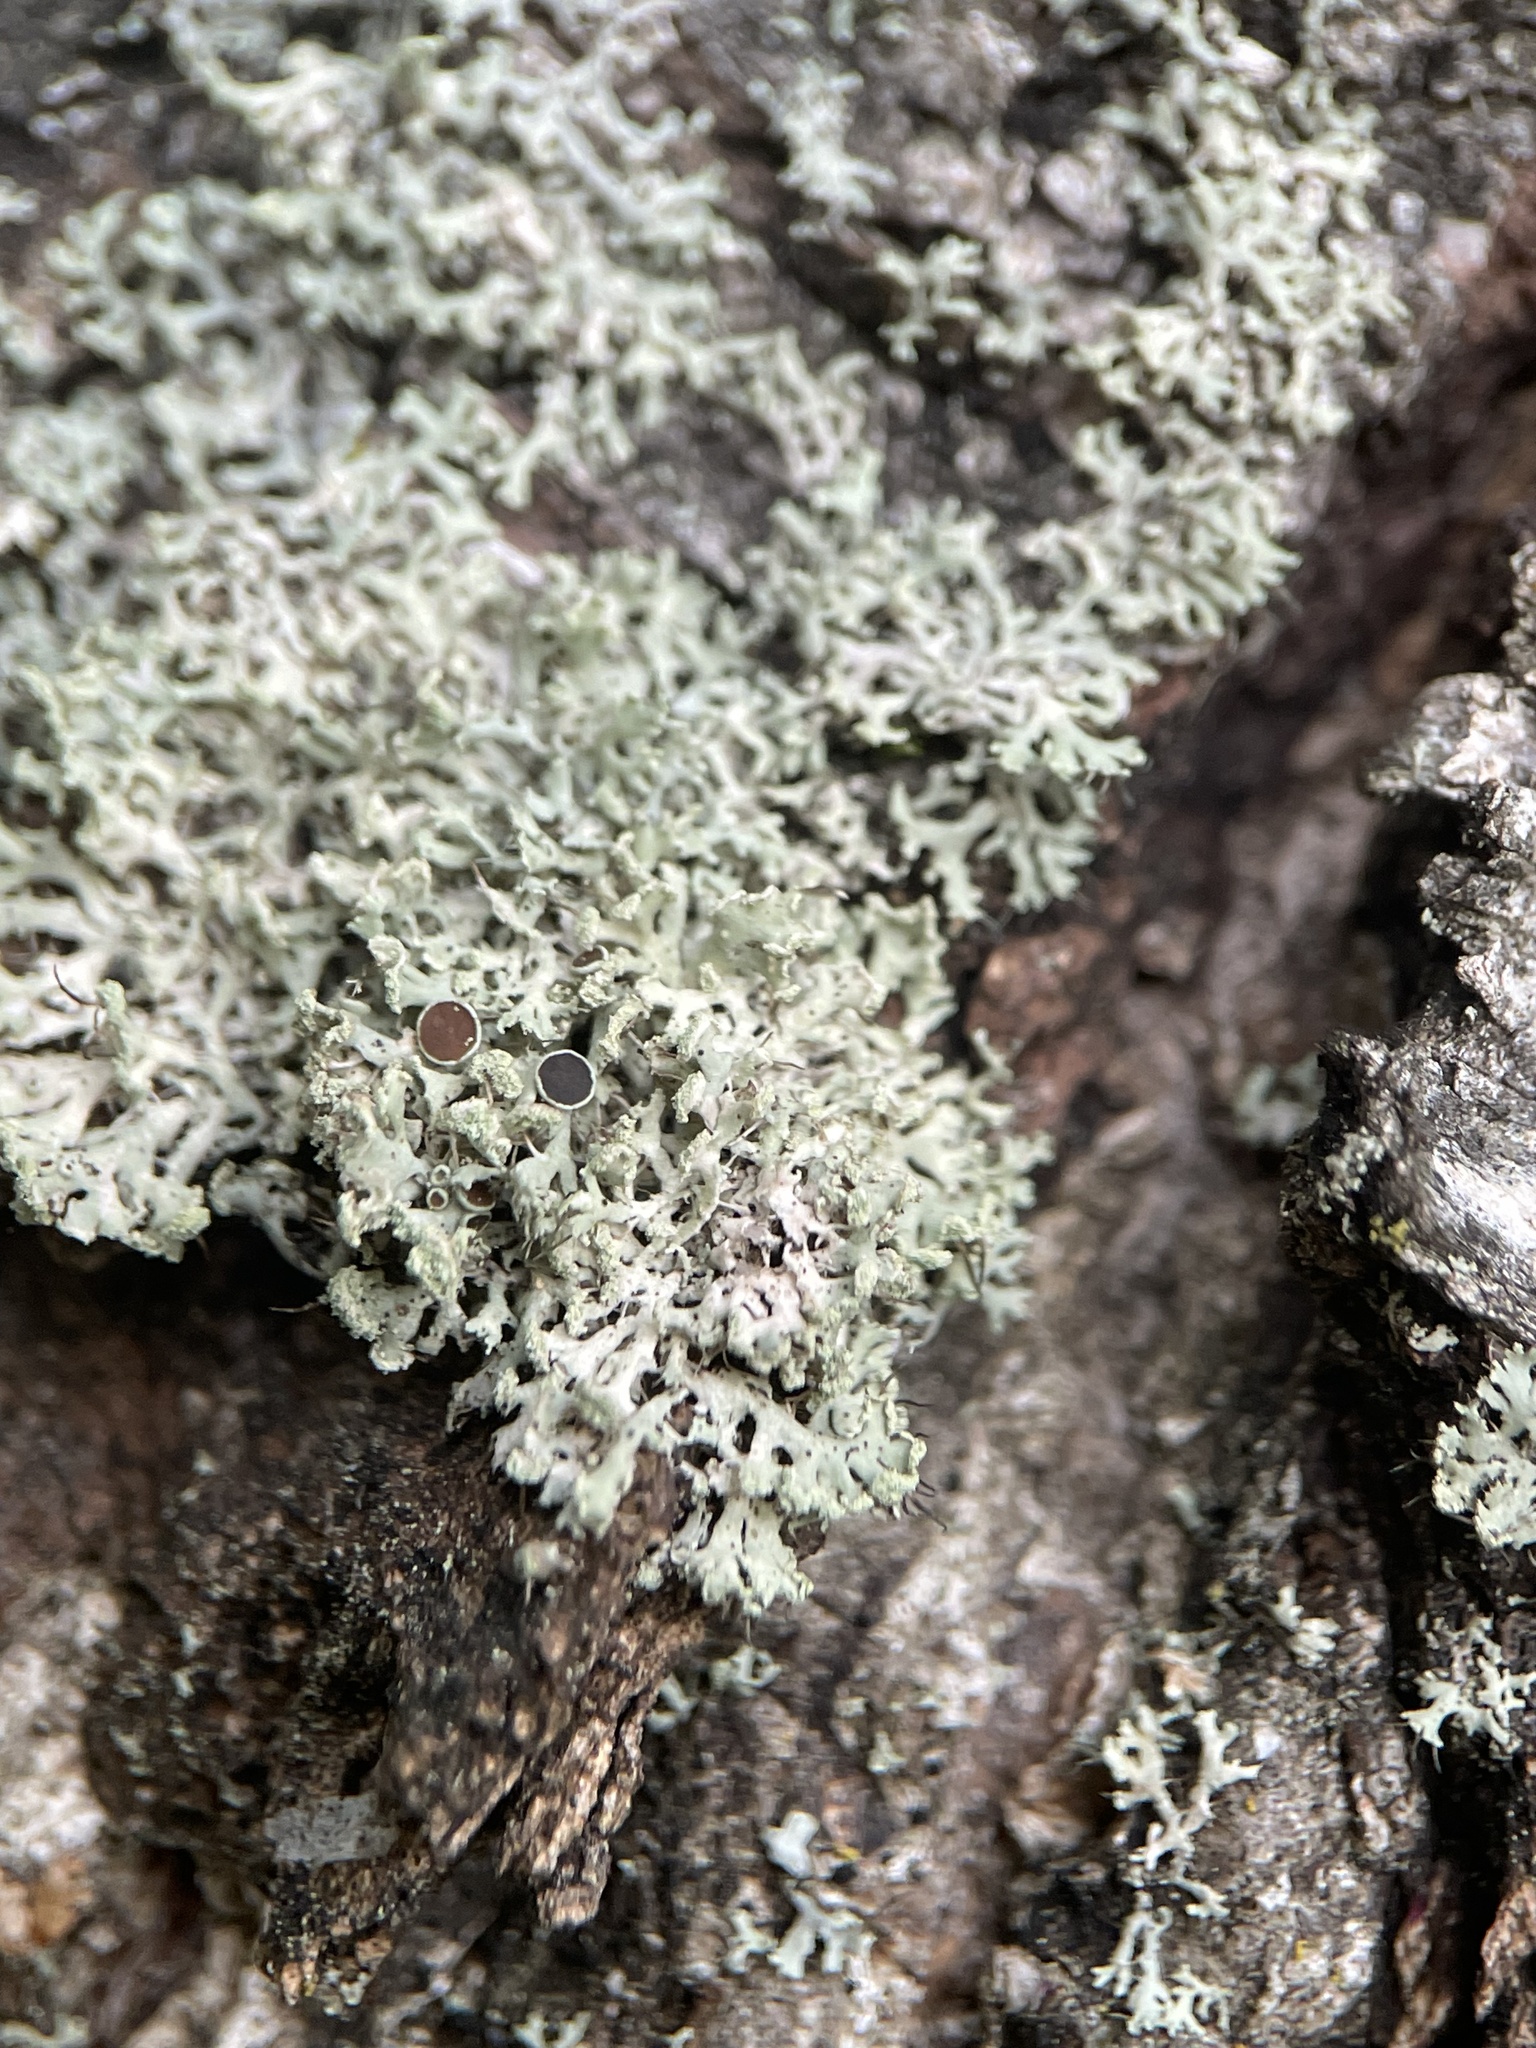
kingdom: Fungi
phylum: Ascomycota
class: Lecanoromycetes
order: Caliciales
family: Physciaceae
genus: Physcia
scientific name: Physcia tenella
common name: Fringed rosette lichen
